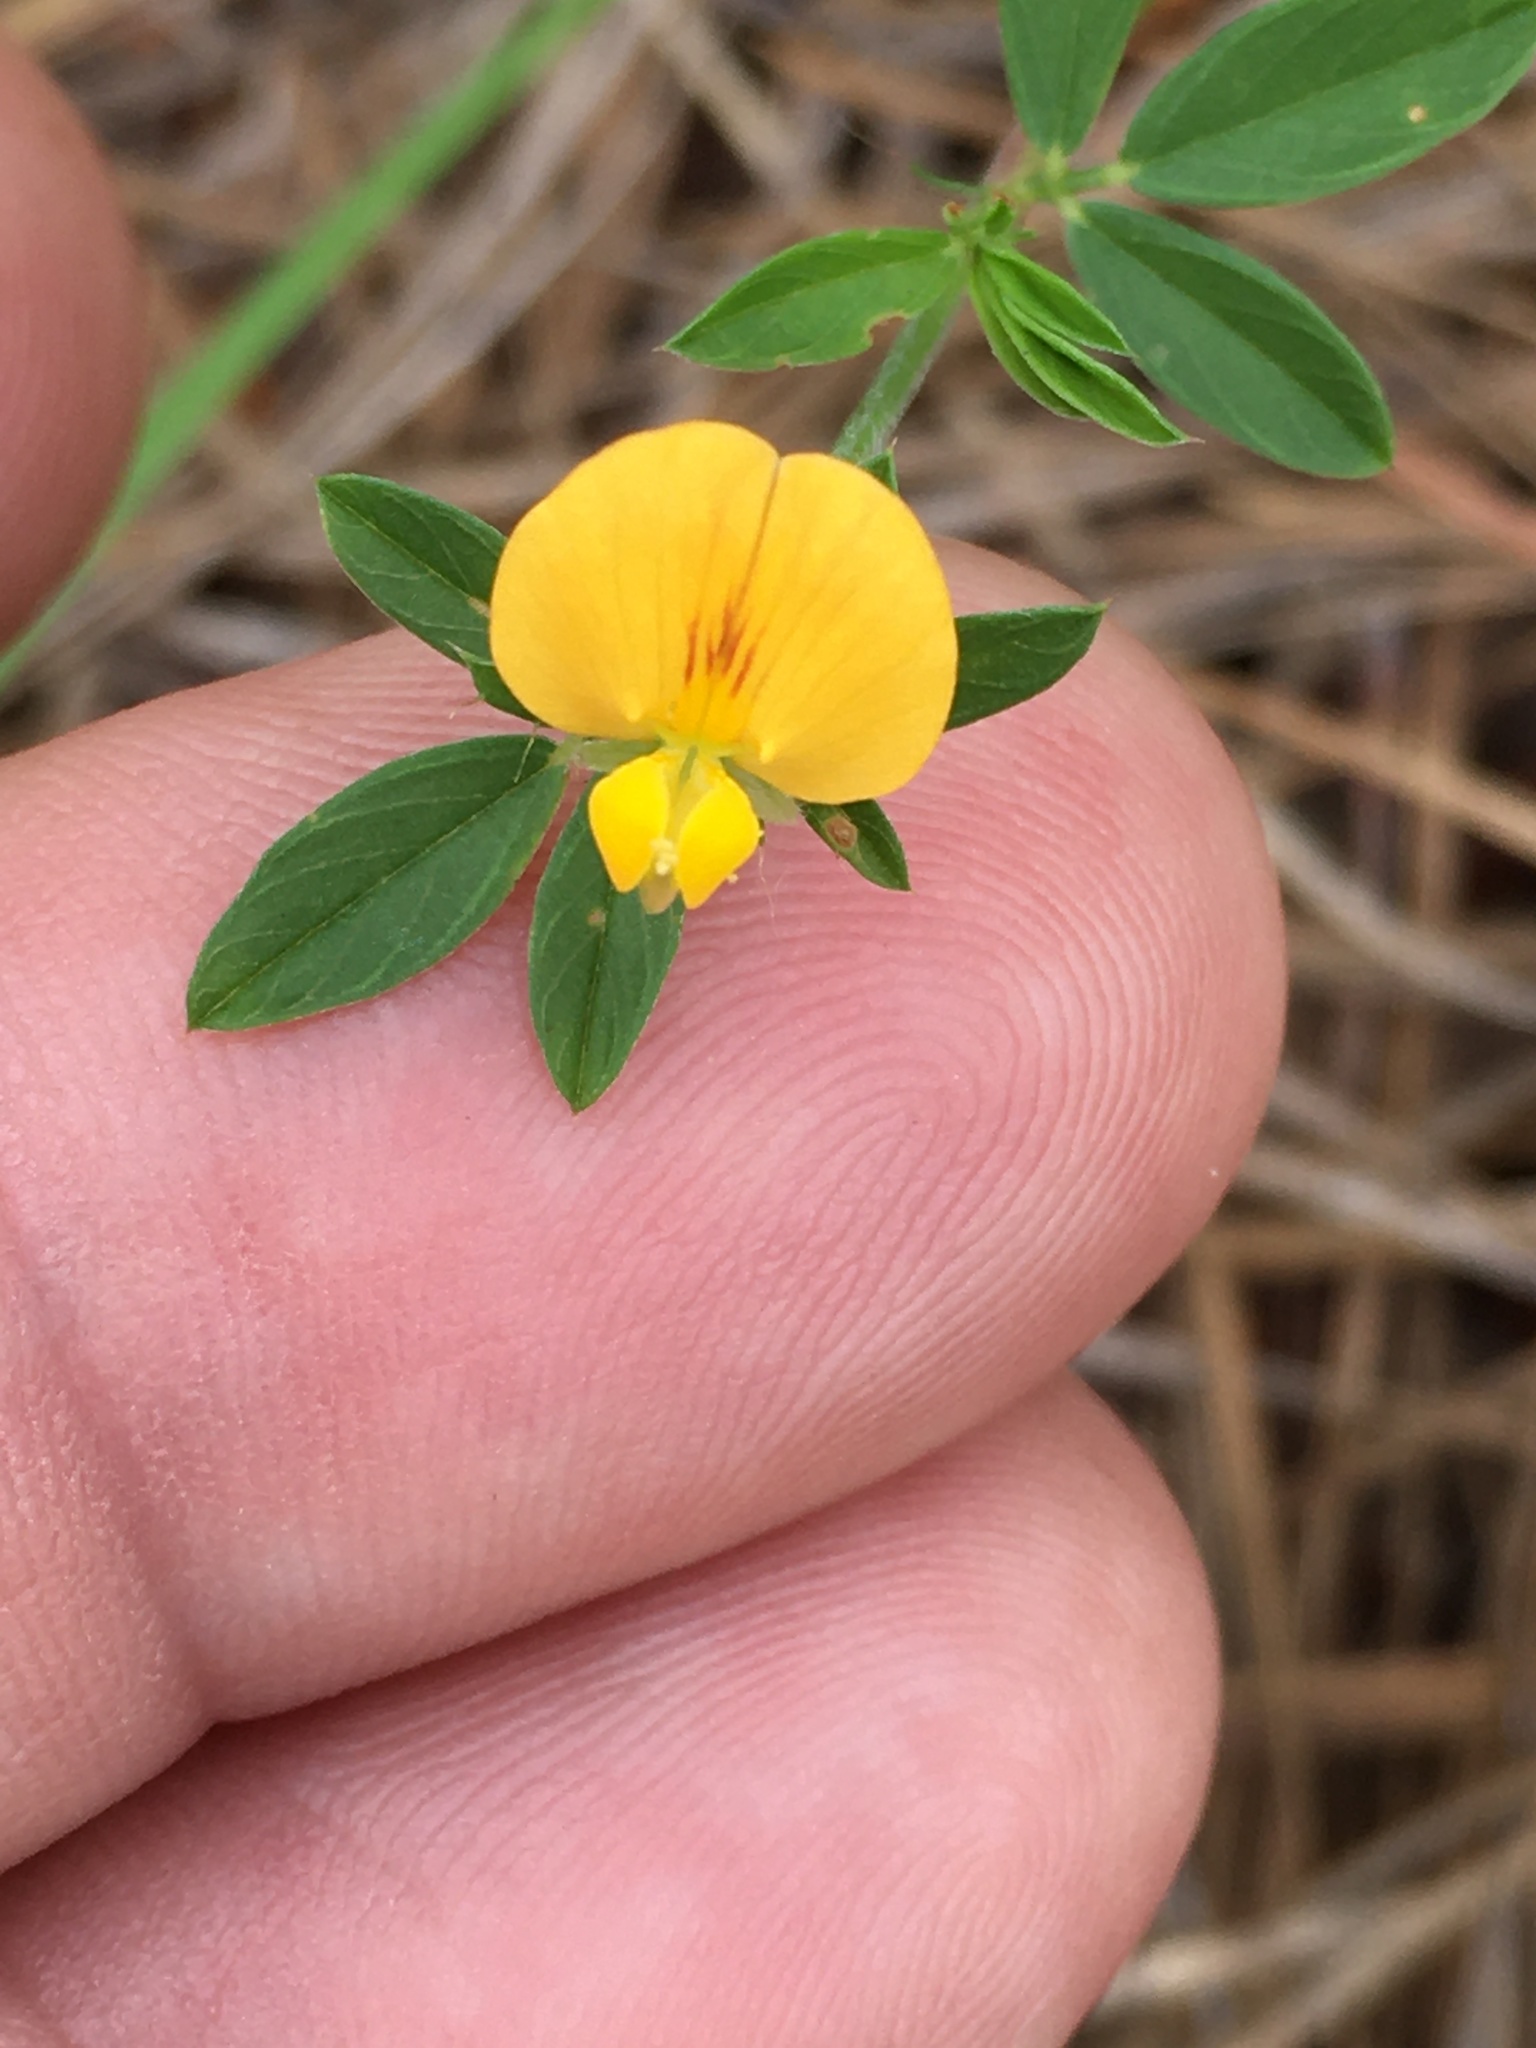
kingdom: Plantae
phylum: Tracheophyta
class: Magnoliopsida
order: Fabales
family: Fabaceae
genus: Stylosanthes
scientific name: Stylosanthes biflora
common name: Two-flower pencil-flower
